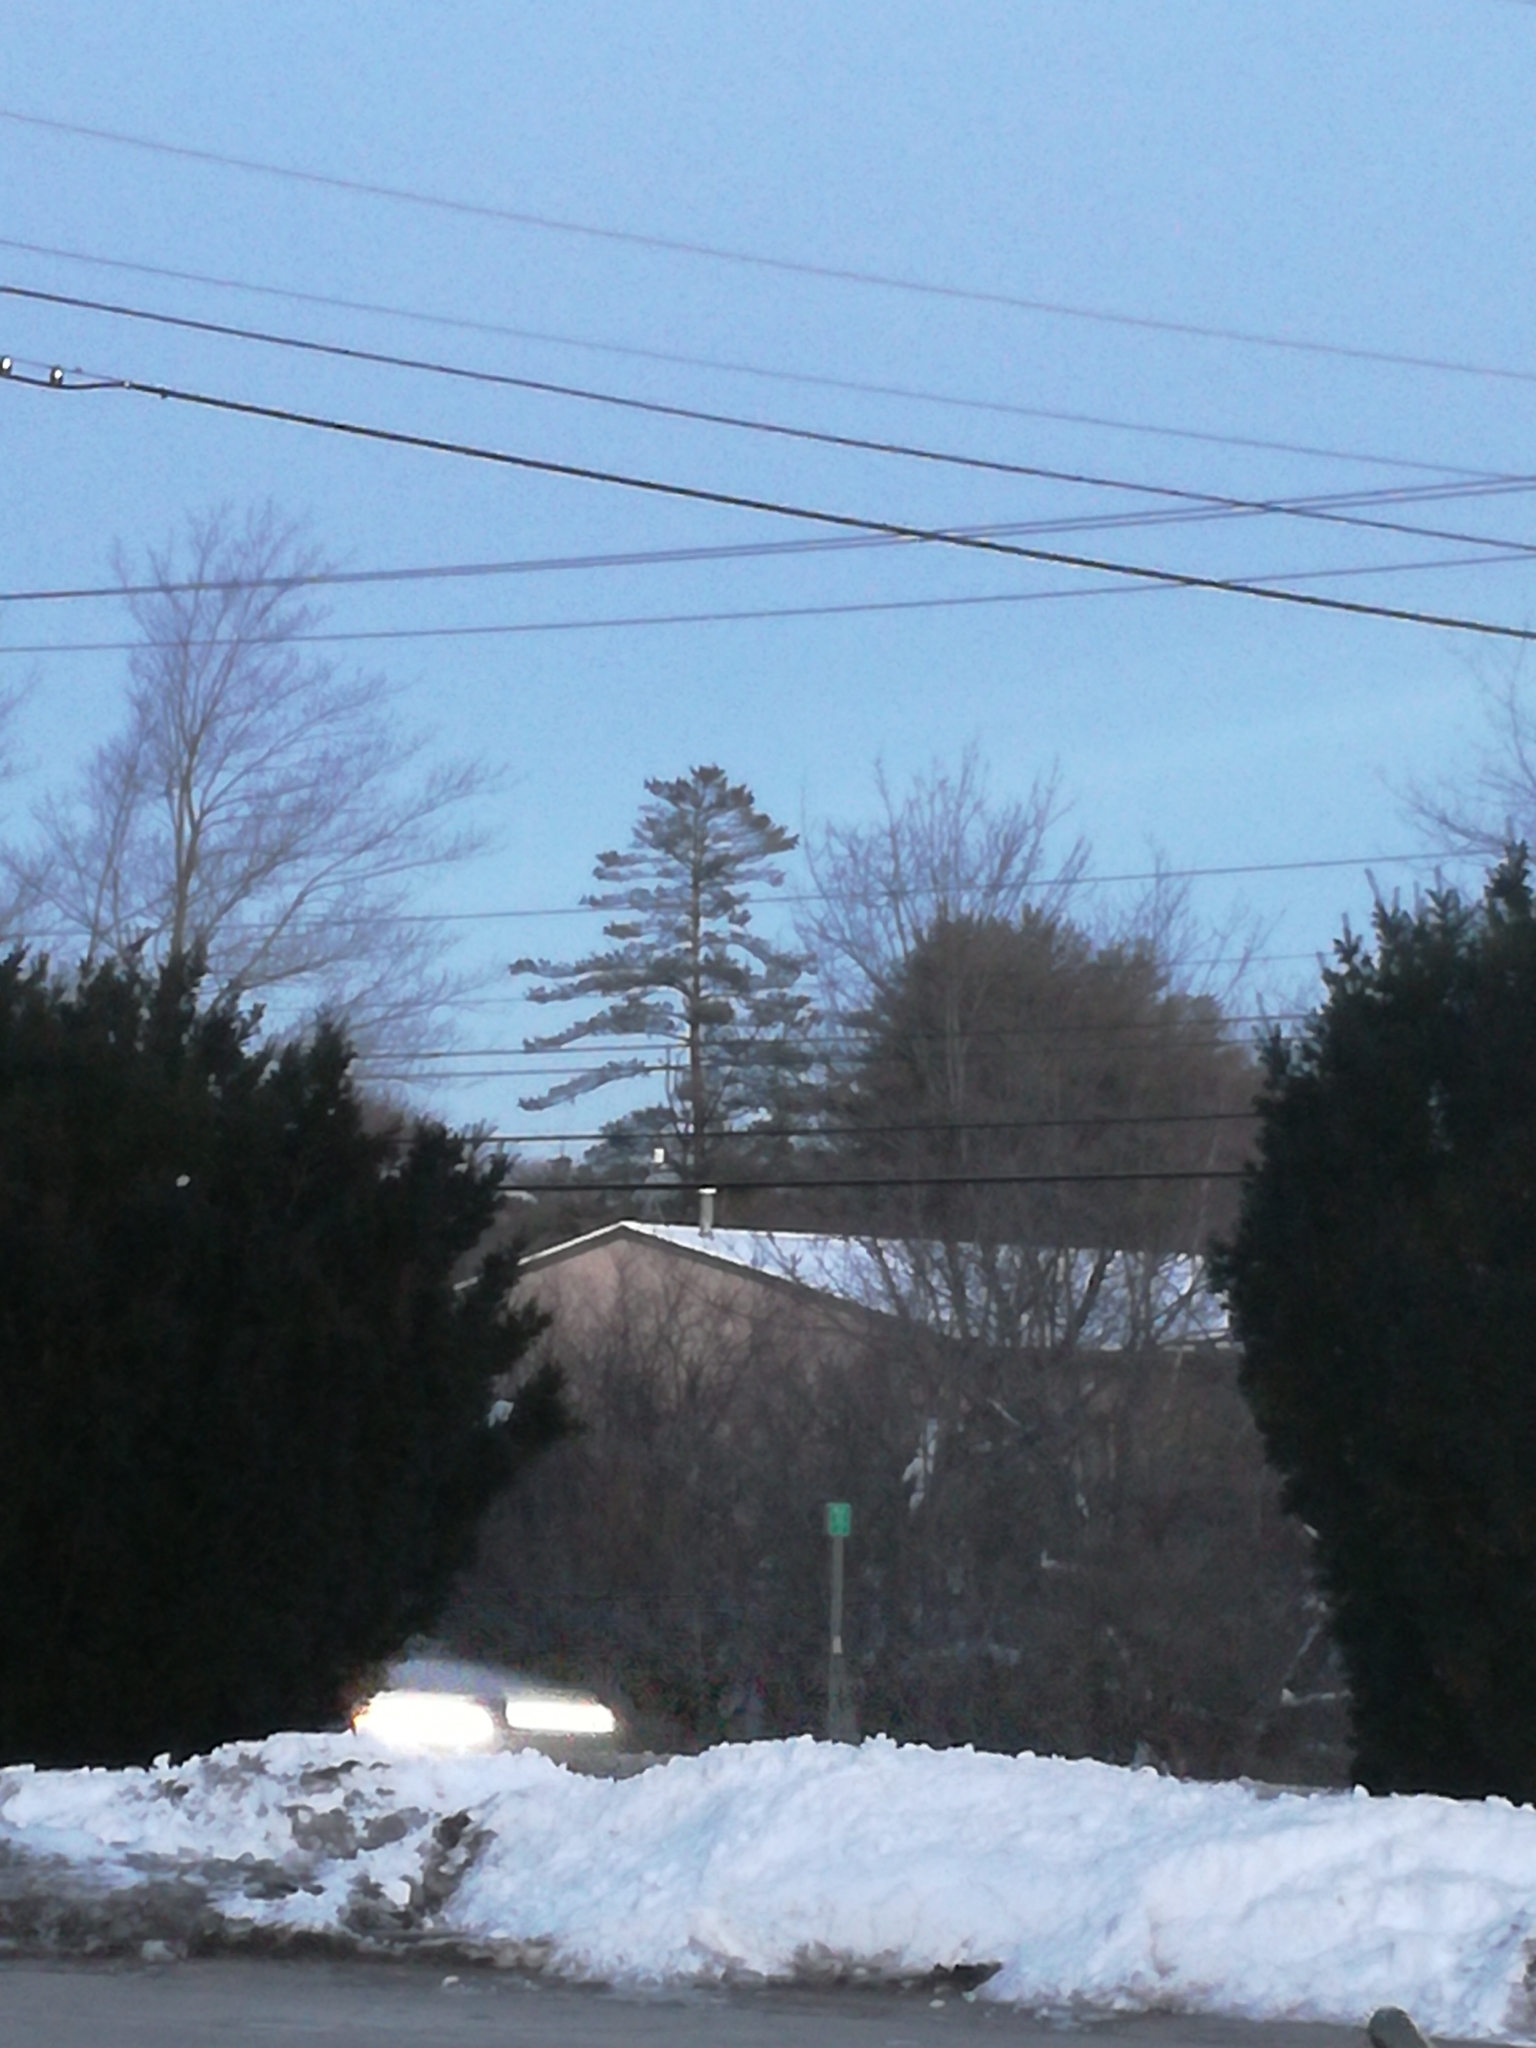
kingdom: Plantae
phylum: Tracheophyta
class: Pinopsida
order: Pinales
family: Pinaceae
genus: Pinus
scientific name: Pinus strobus
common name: Weymouth pine
